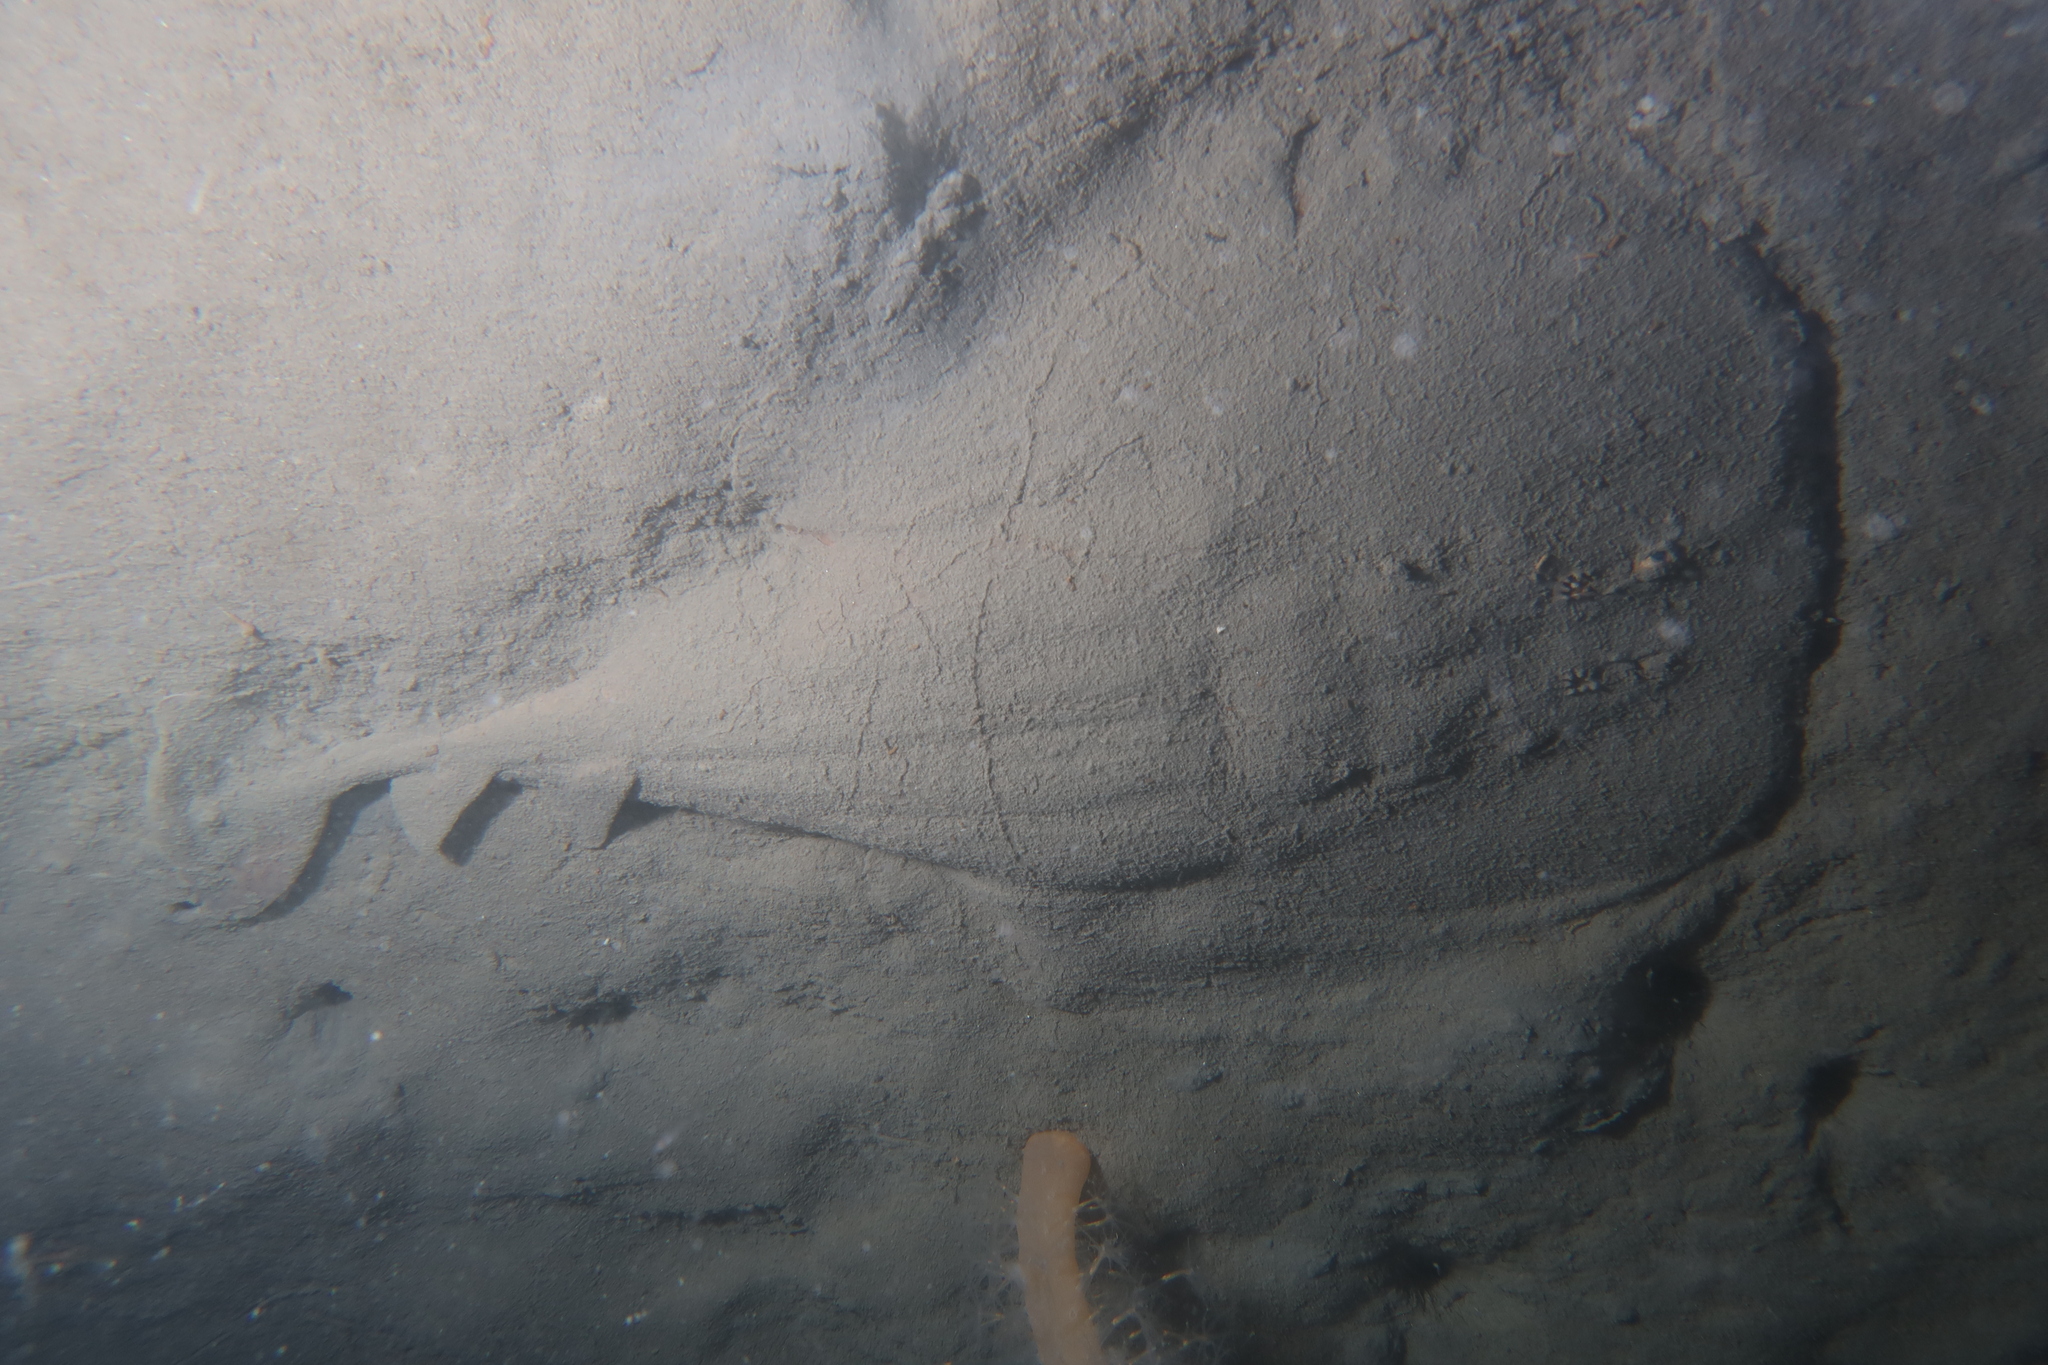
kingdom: Animalia
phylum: Chordata
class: Elasmobranchii
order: Torpediniformes
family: Torpedinidae
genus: Torpedo
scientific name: Torpedo marmorata
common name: Marbled electric ray
